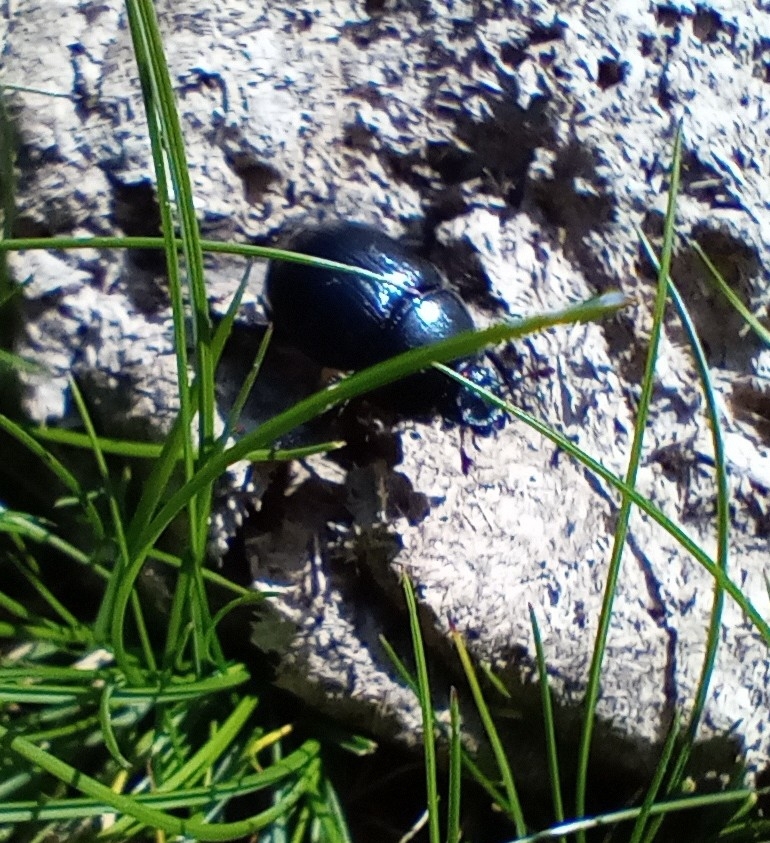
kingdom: Animalia
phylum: Arthropoda
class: Insecta
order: Coleoptera
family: Geotrupidae
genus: Anoplotrupes
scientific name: Anoplotrupes stercorosus
